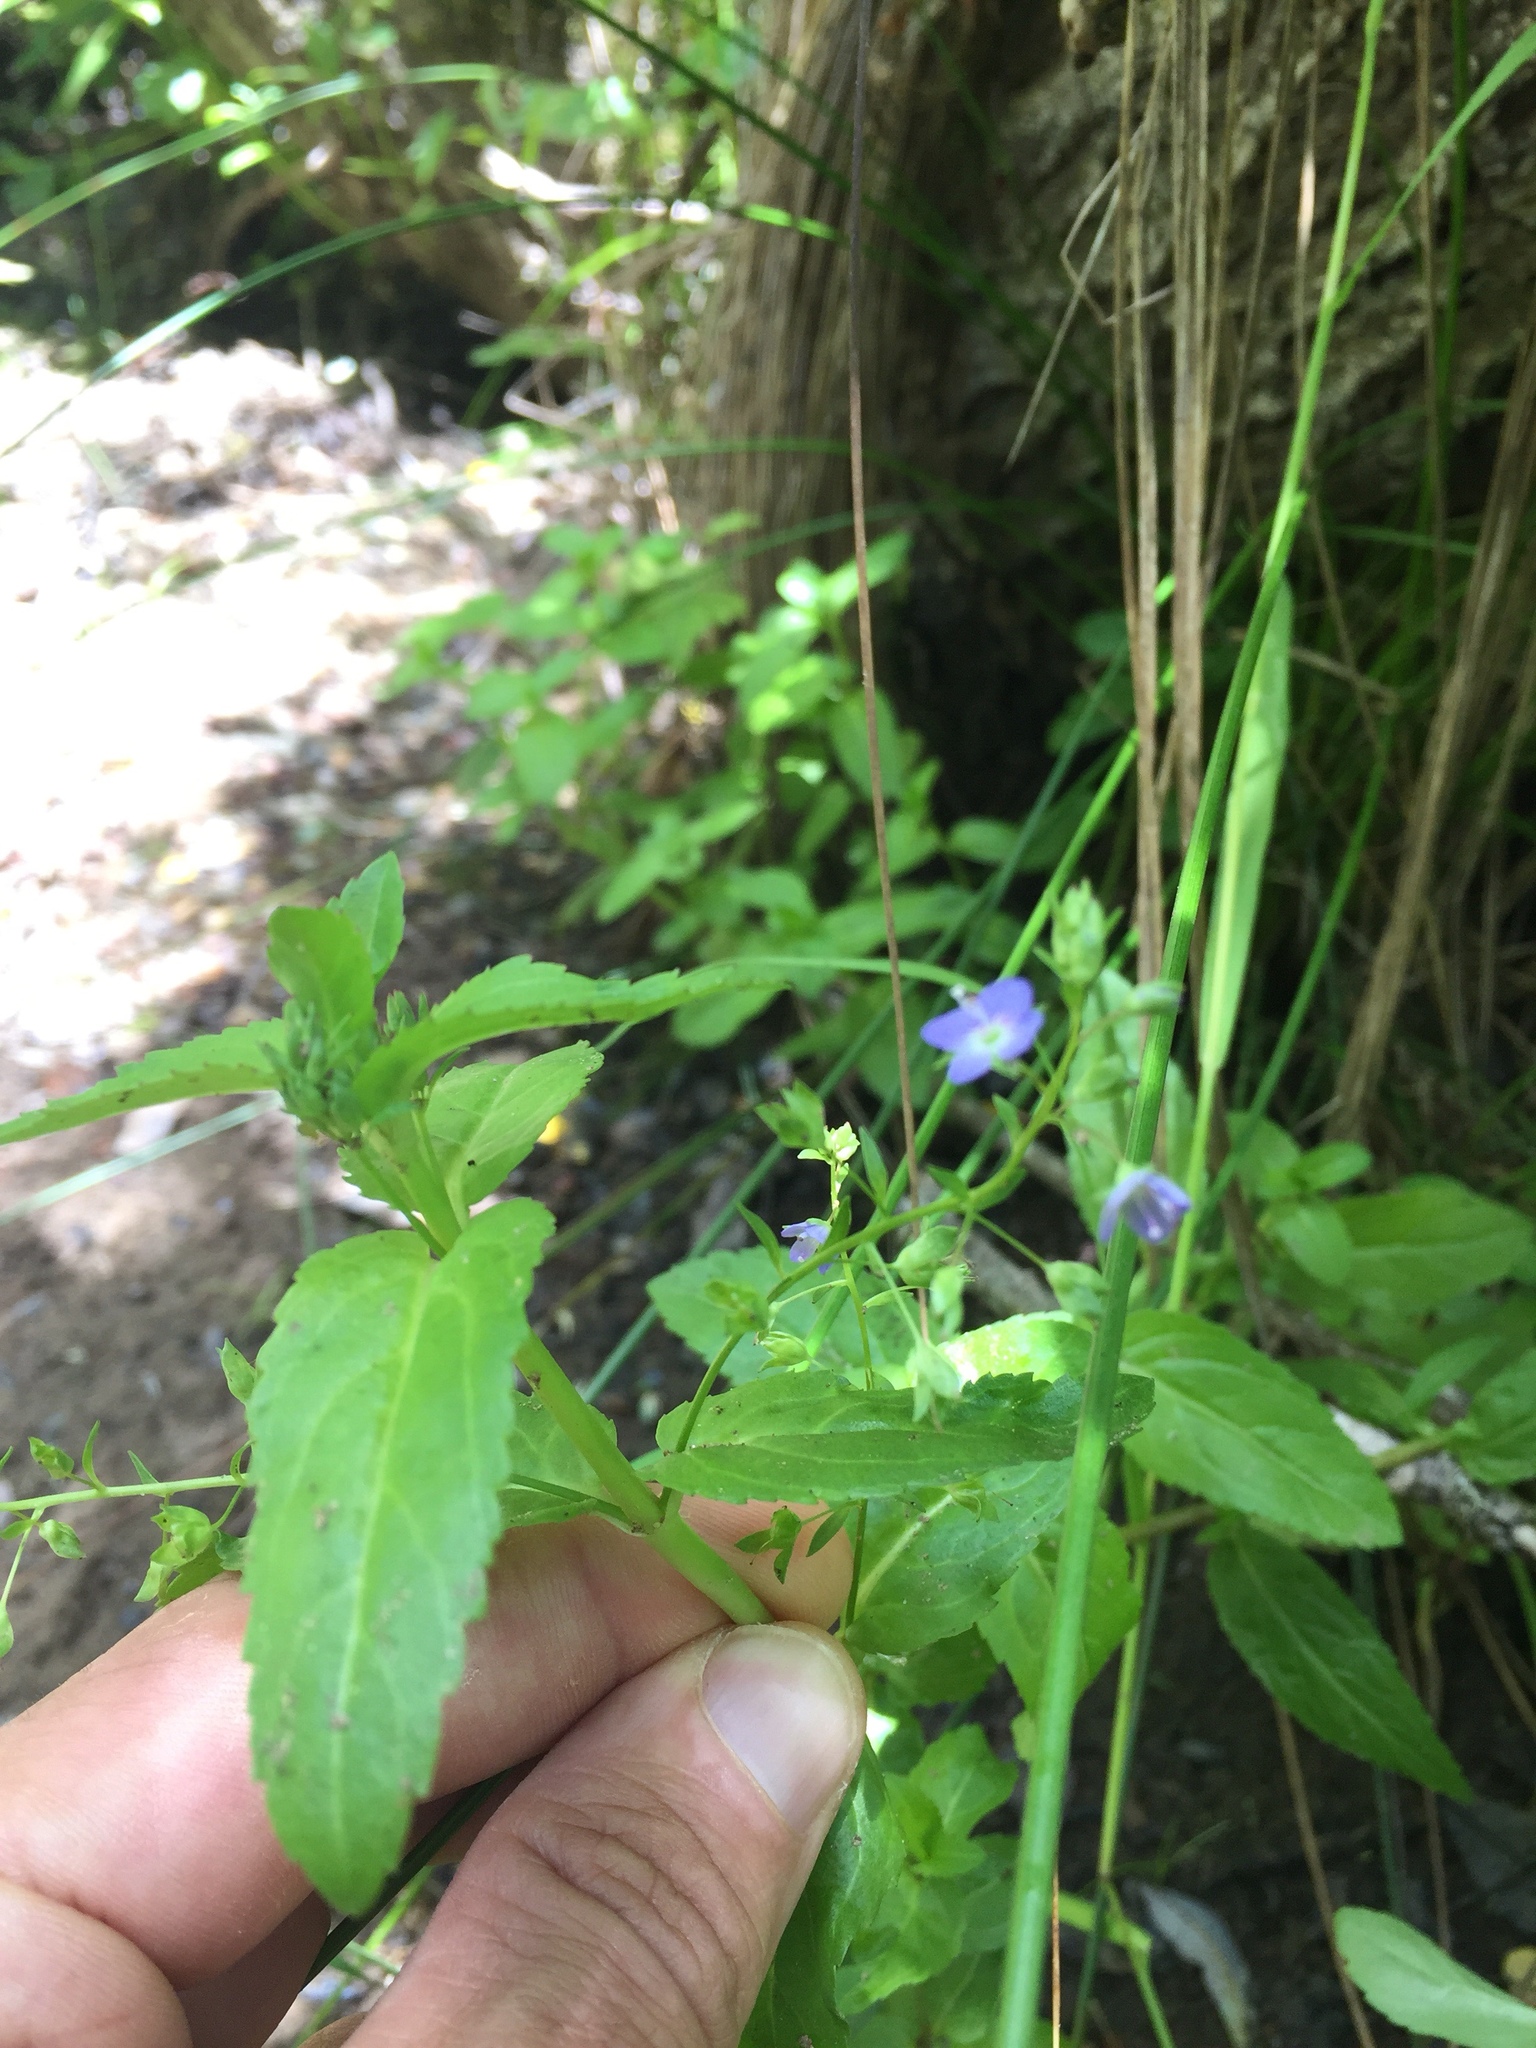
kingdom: Plantae
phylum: Tracheophyta
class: Magnoliopsida
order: Lamiales
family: Plantaginaceae
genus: Veronica
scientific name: Veronica americana
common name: American brooklime
